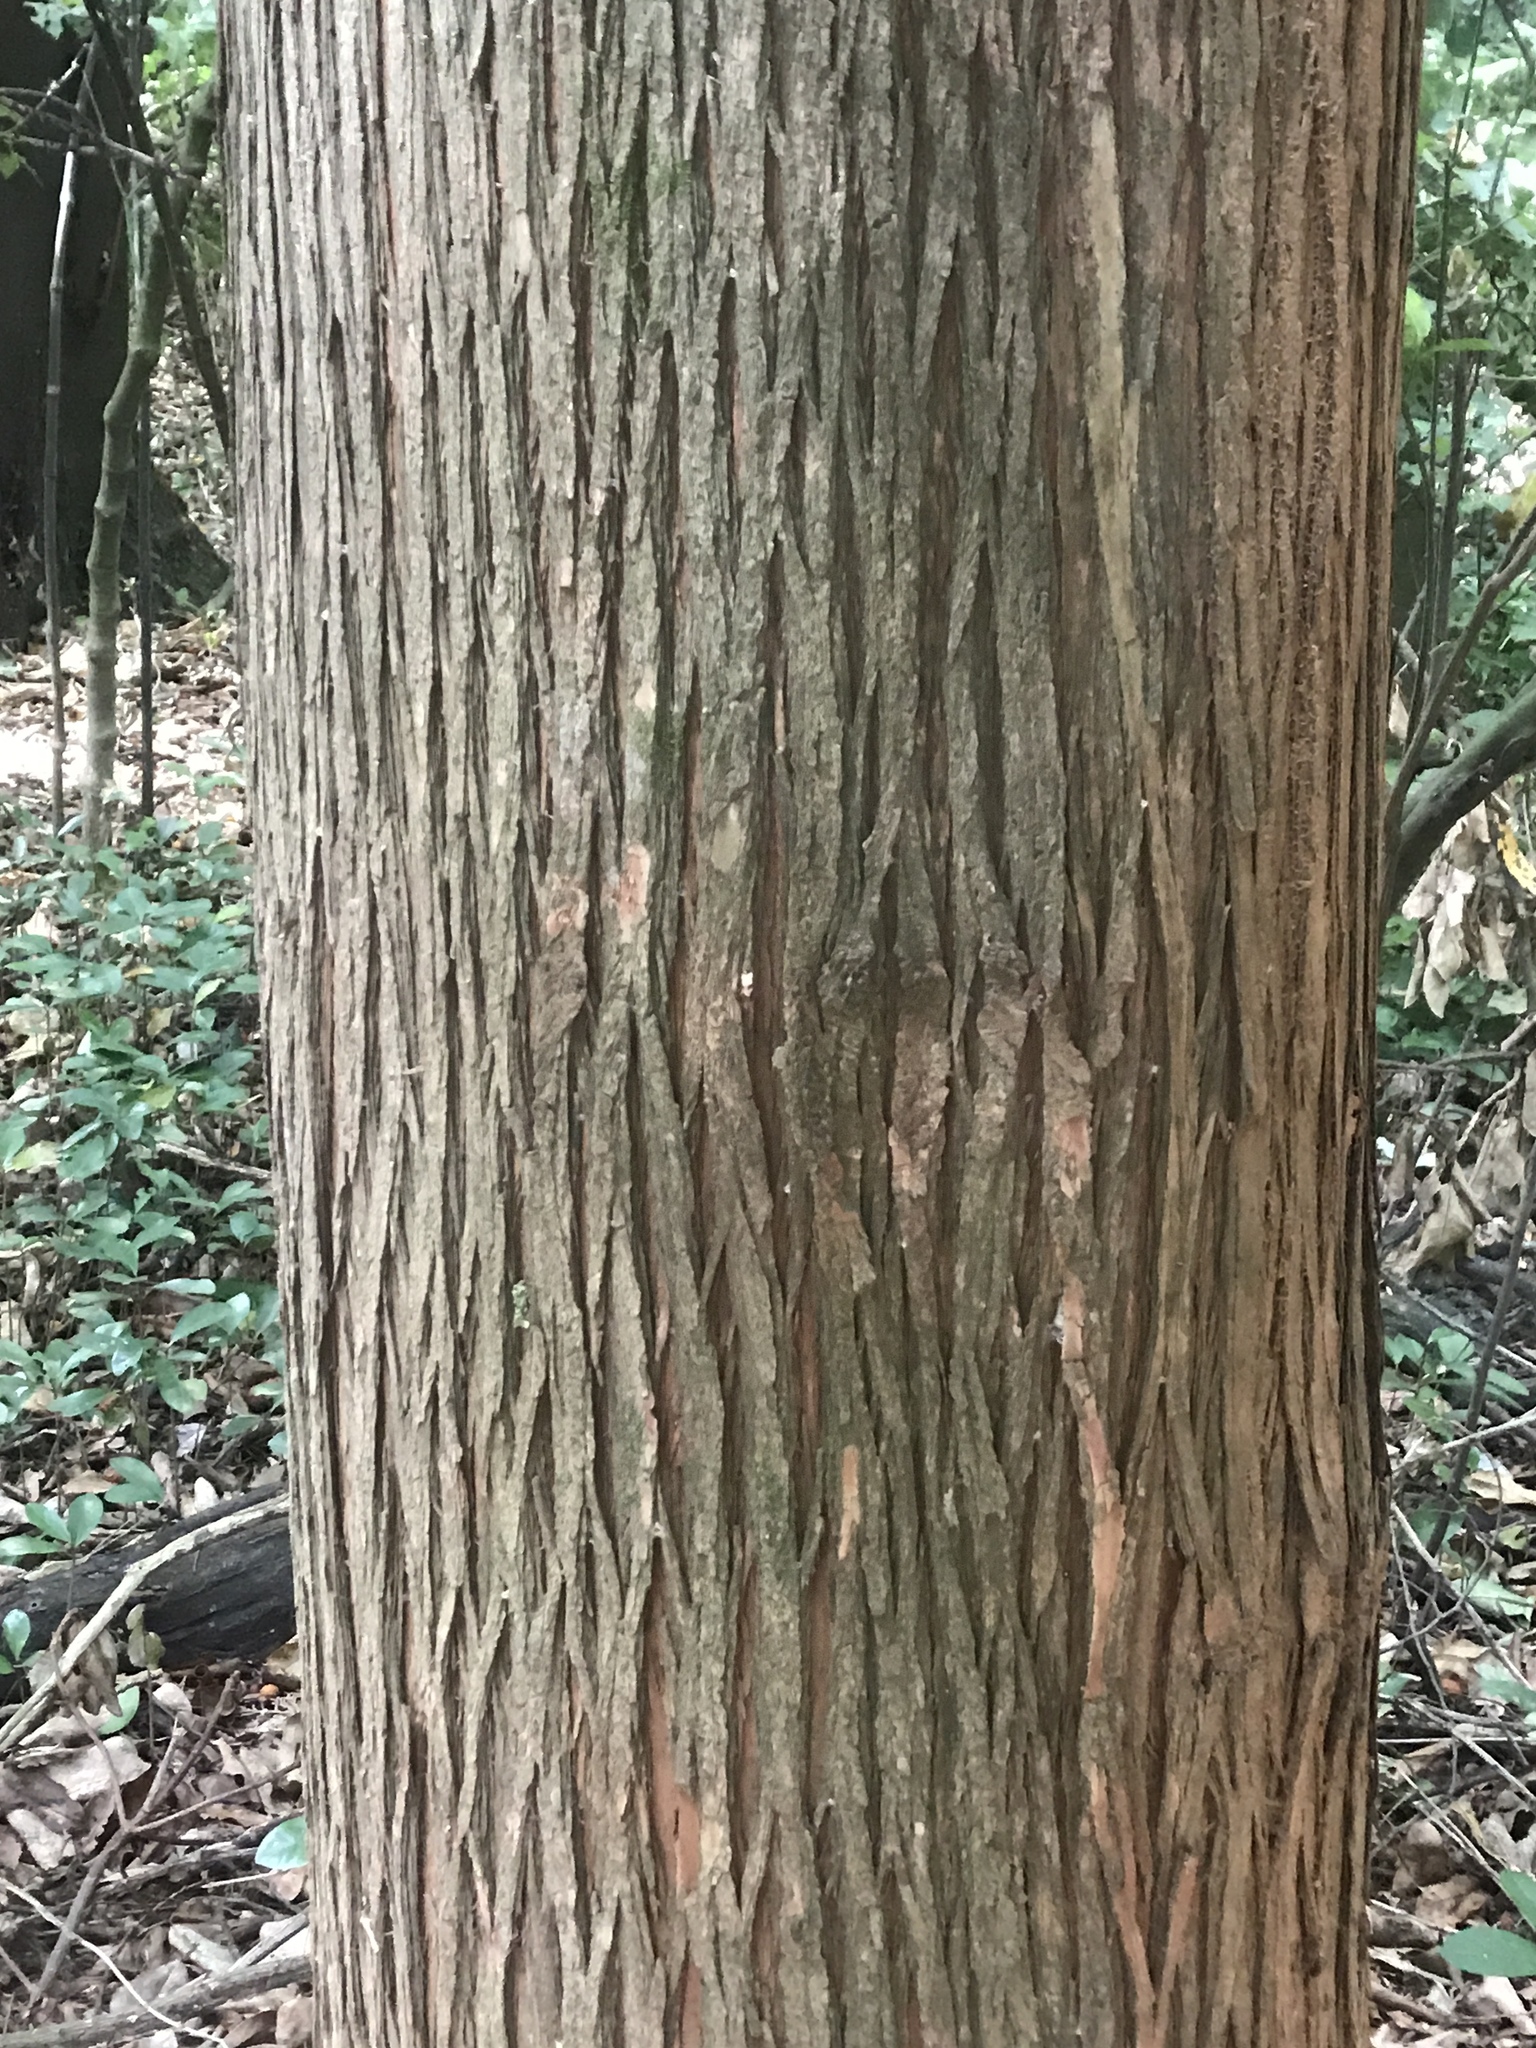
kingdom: Plantae
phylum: Tracheophyta
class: Pinopsida
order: Pinales
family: Podocarpaceae
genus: Podocarpus
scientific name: Podocarpus totara
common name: Totara
